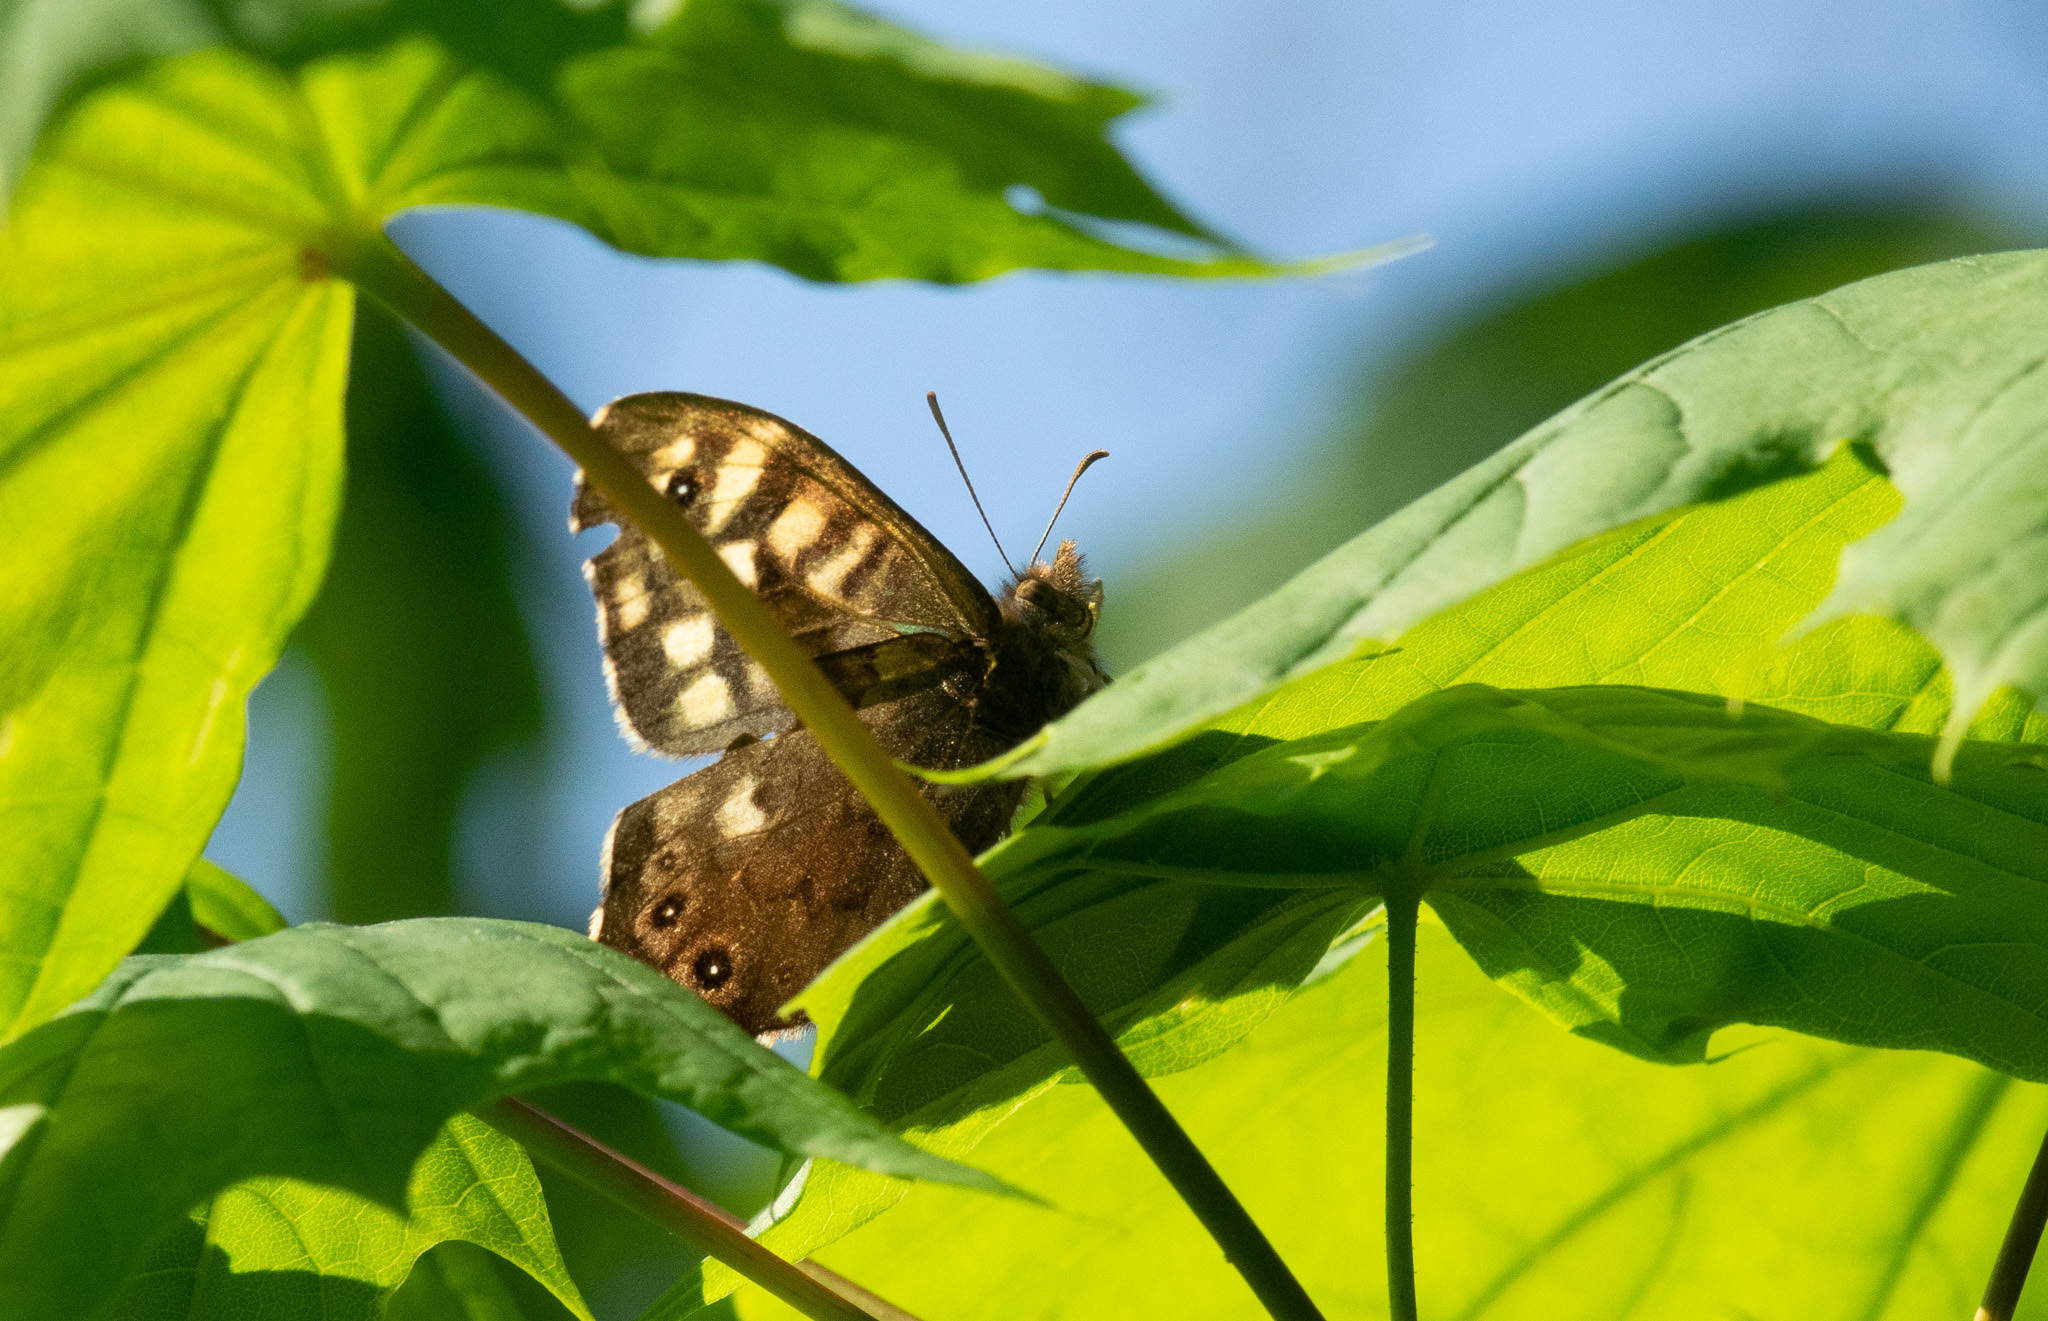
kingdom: Animalia
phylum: Arthropoda
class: Insecta
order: Lepidoptera
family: Nymphalidae
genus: Pararge
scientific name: Pararge aegeria
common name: Speckled wood
